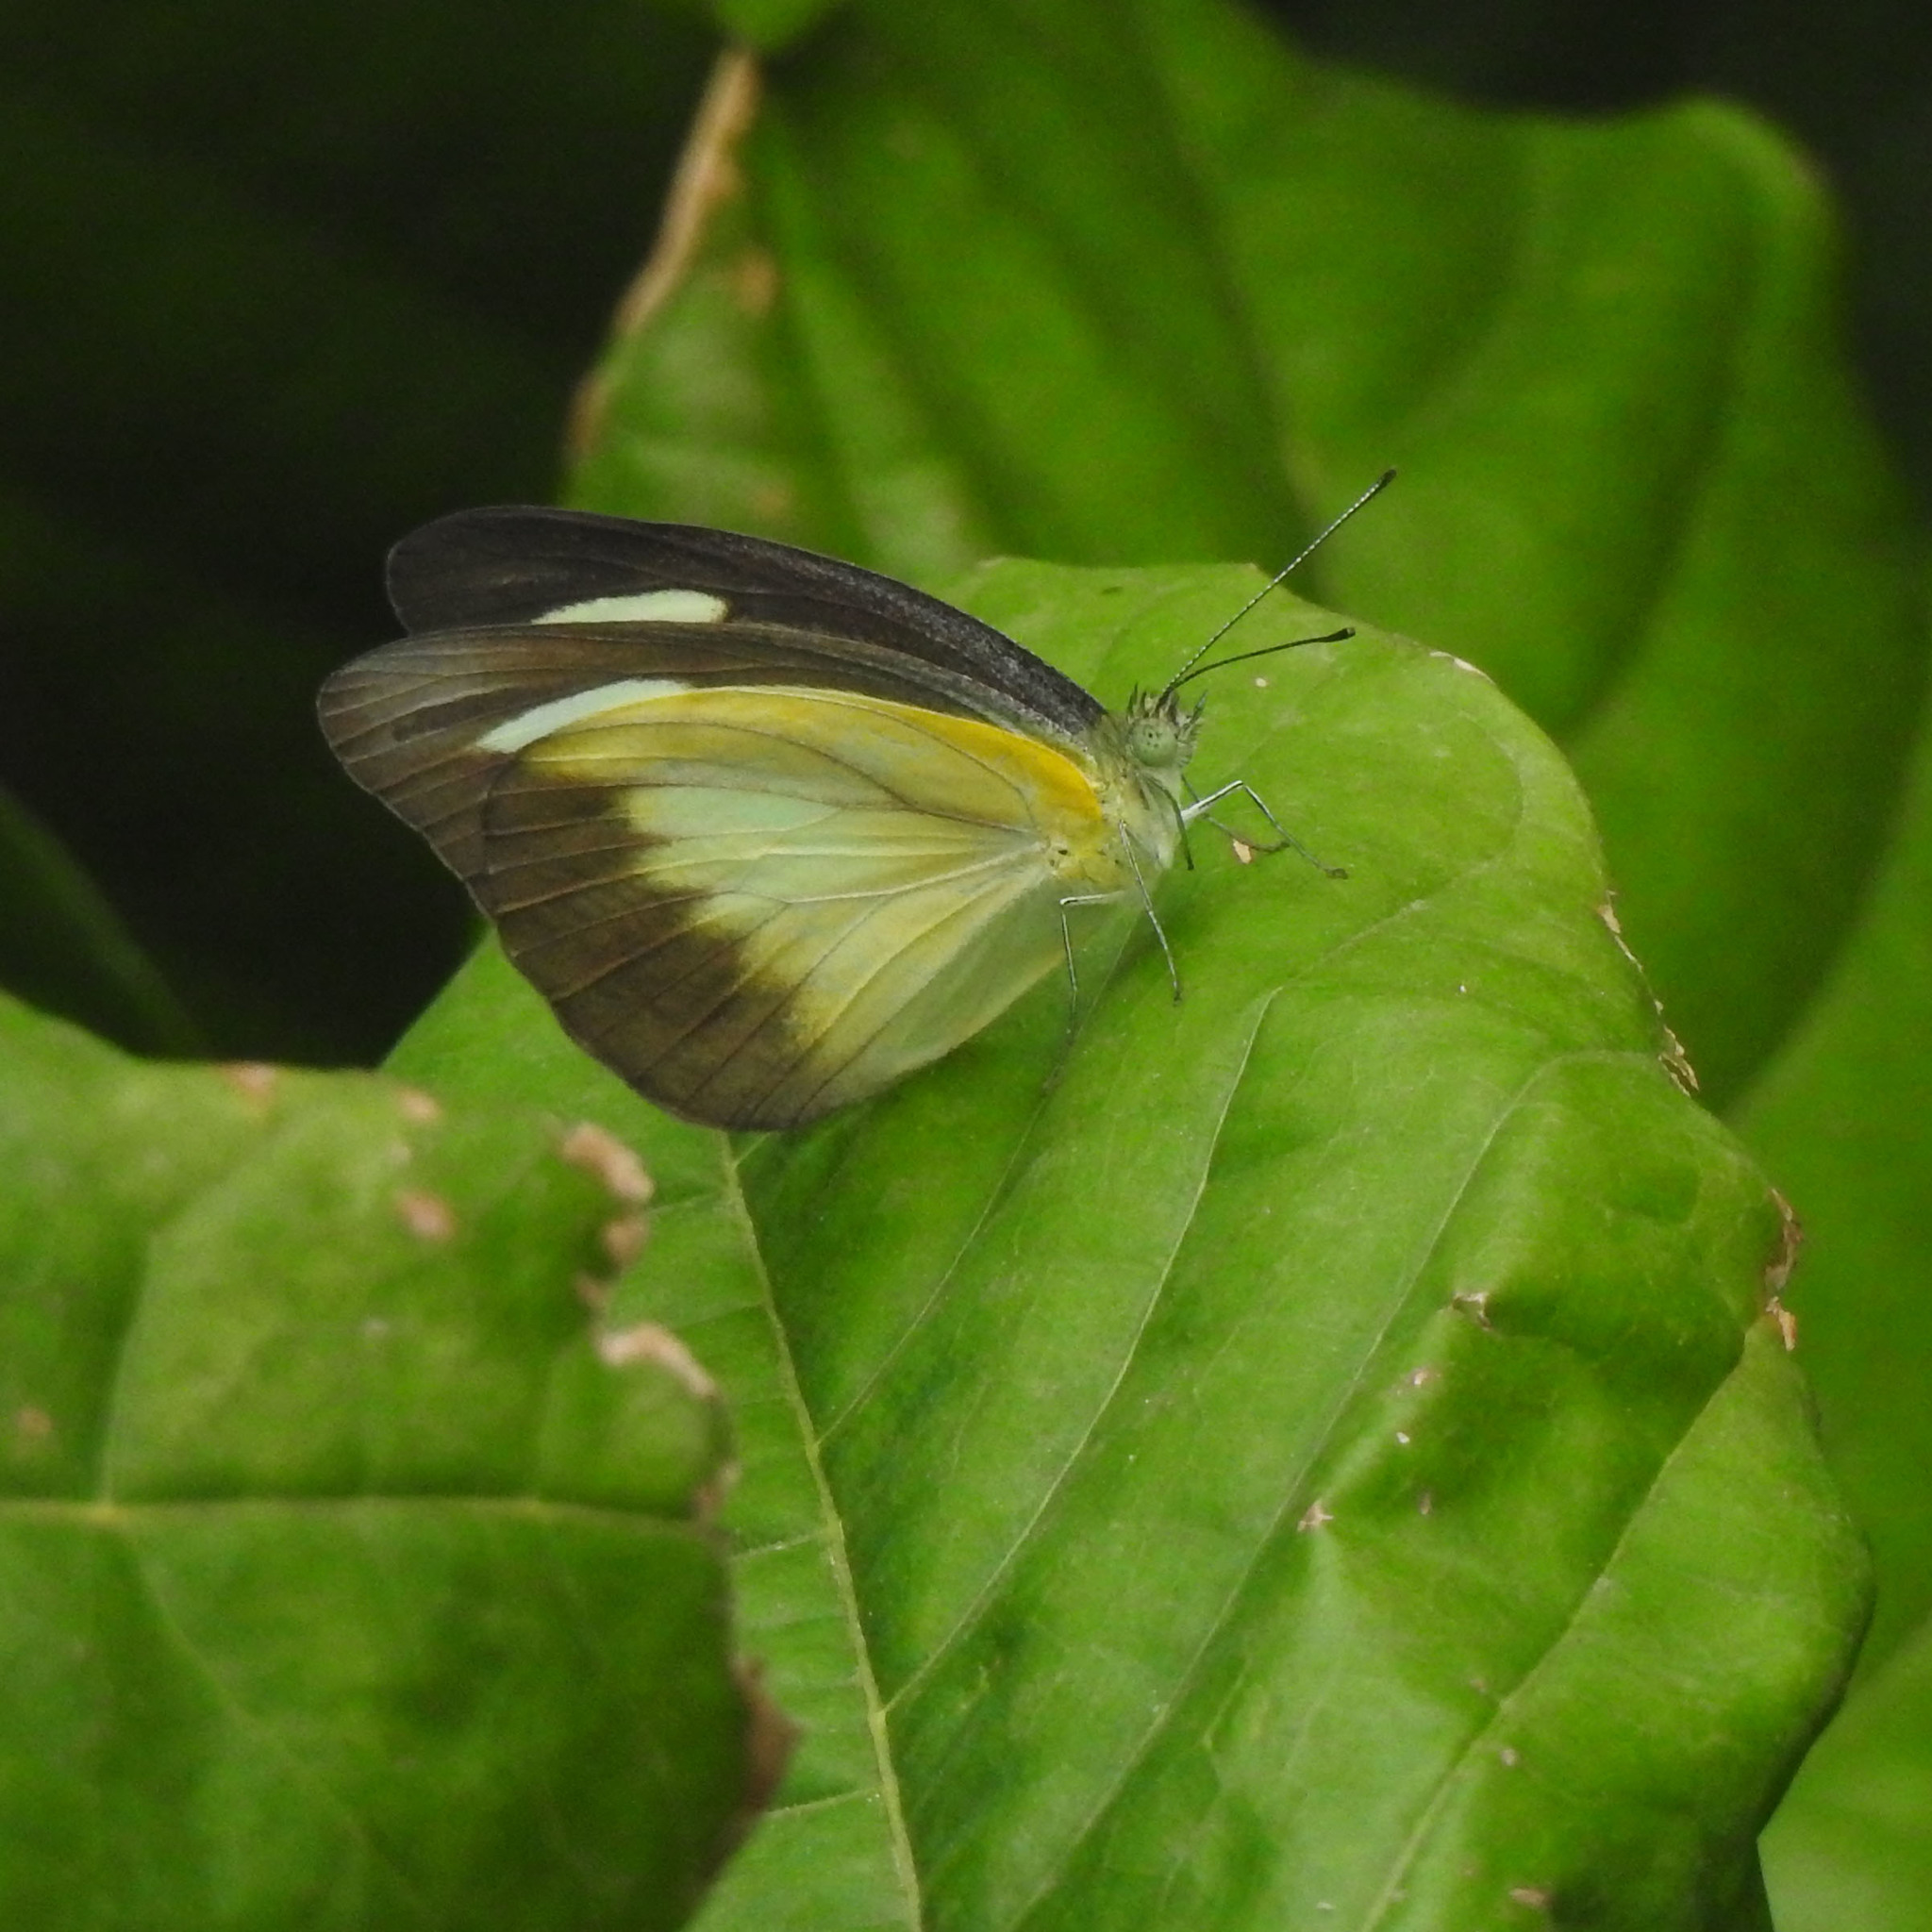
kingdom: Animalia
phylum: Arthropoda
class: Insecta
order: Lepidoptera
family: Pieridae
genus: Appias
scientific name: Appias lyncida
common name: Chocolate albatross
